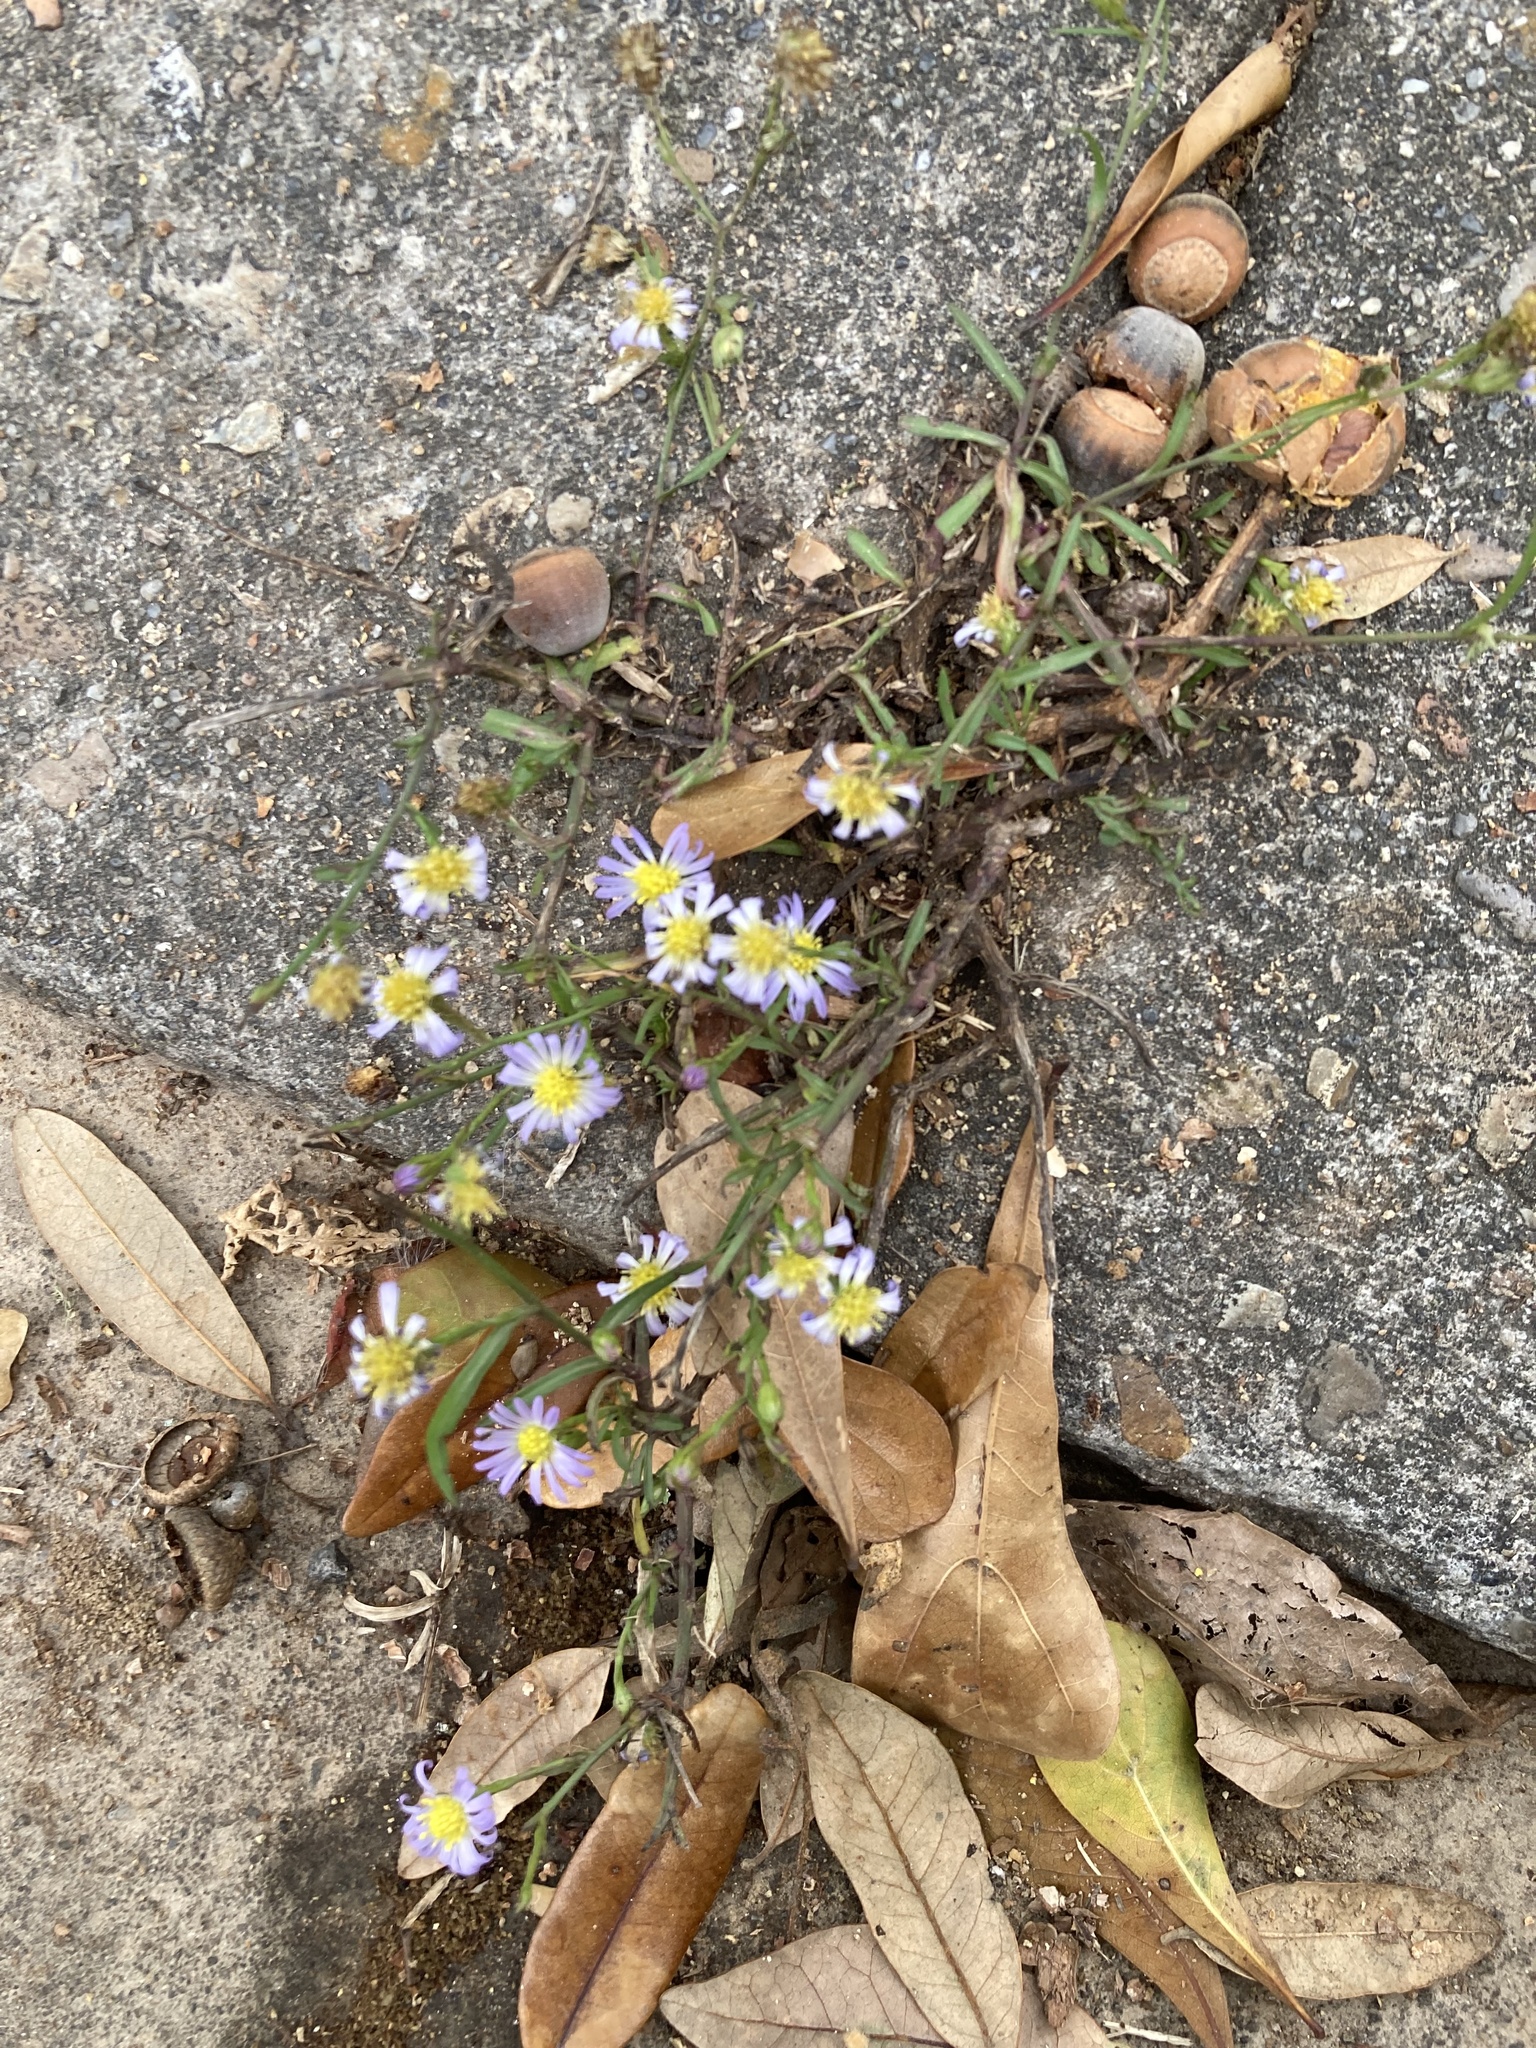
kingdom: Plantae
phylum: Tracheophyta
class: Magnoliopsida
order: Asterales
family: Asteraceae
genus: Symphyotrichum
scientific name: Symphyotrichum divaricatum
